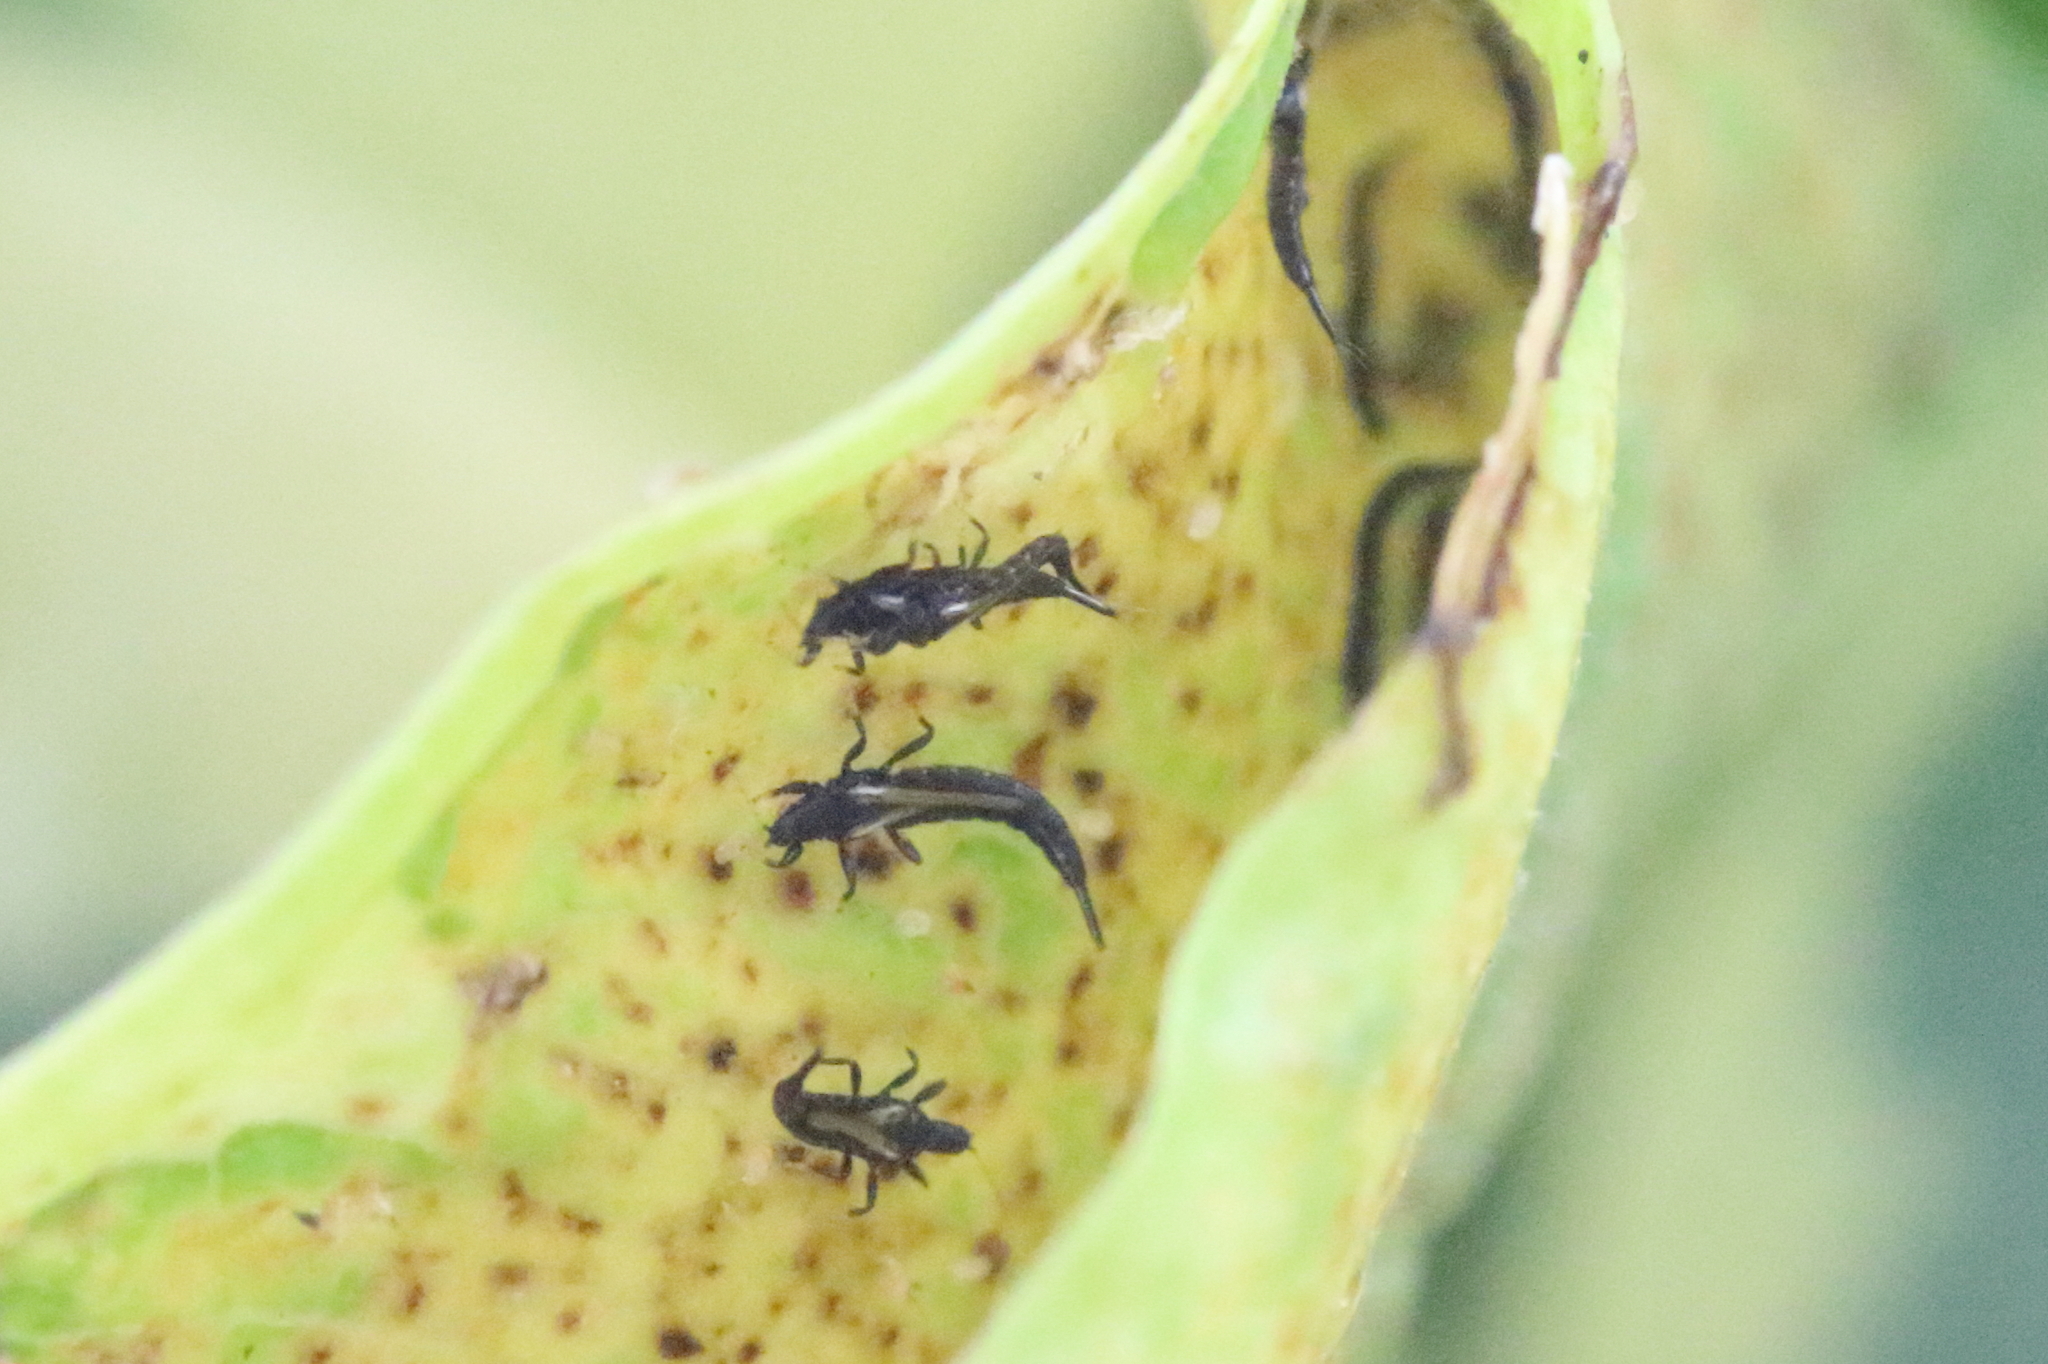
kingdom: Animalia
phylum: Arthropoda
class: Insecta
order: Thysanoptera
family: Phlaeothripidae
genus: Gynaikothrips
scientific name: Gynaikothrips uzeli
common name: Leaf-gall thrips
